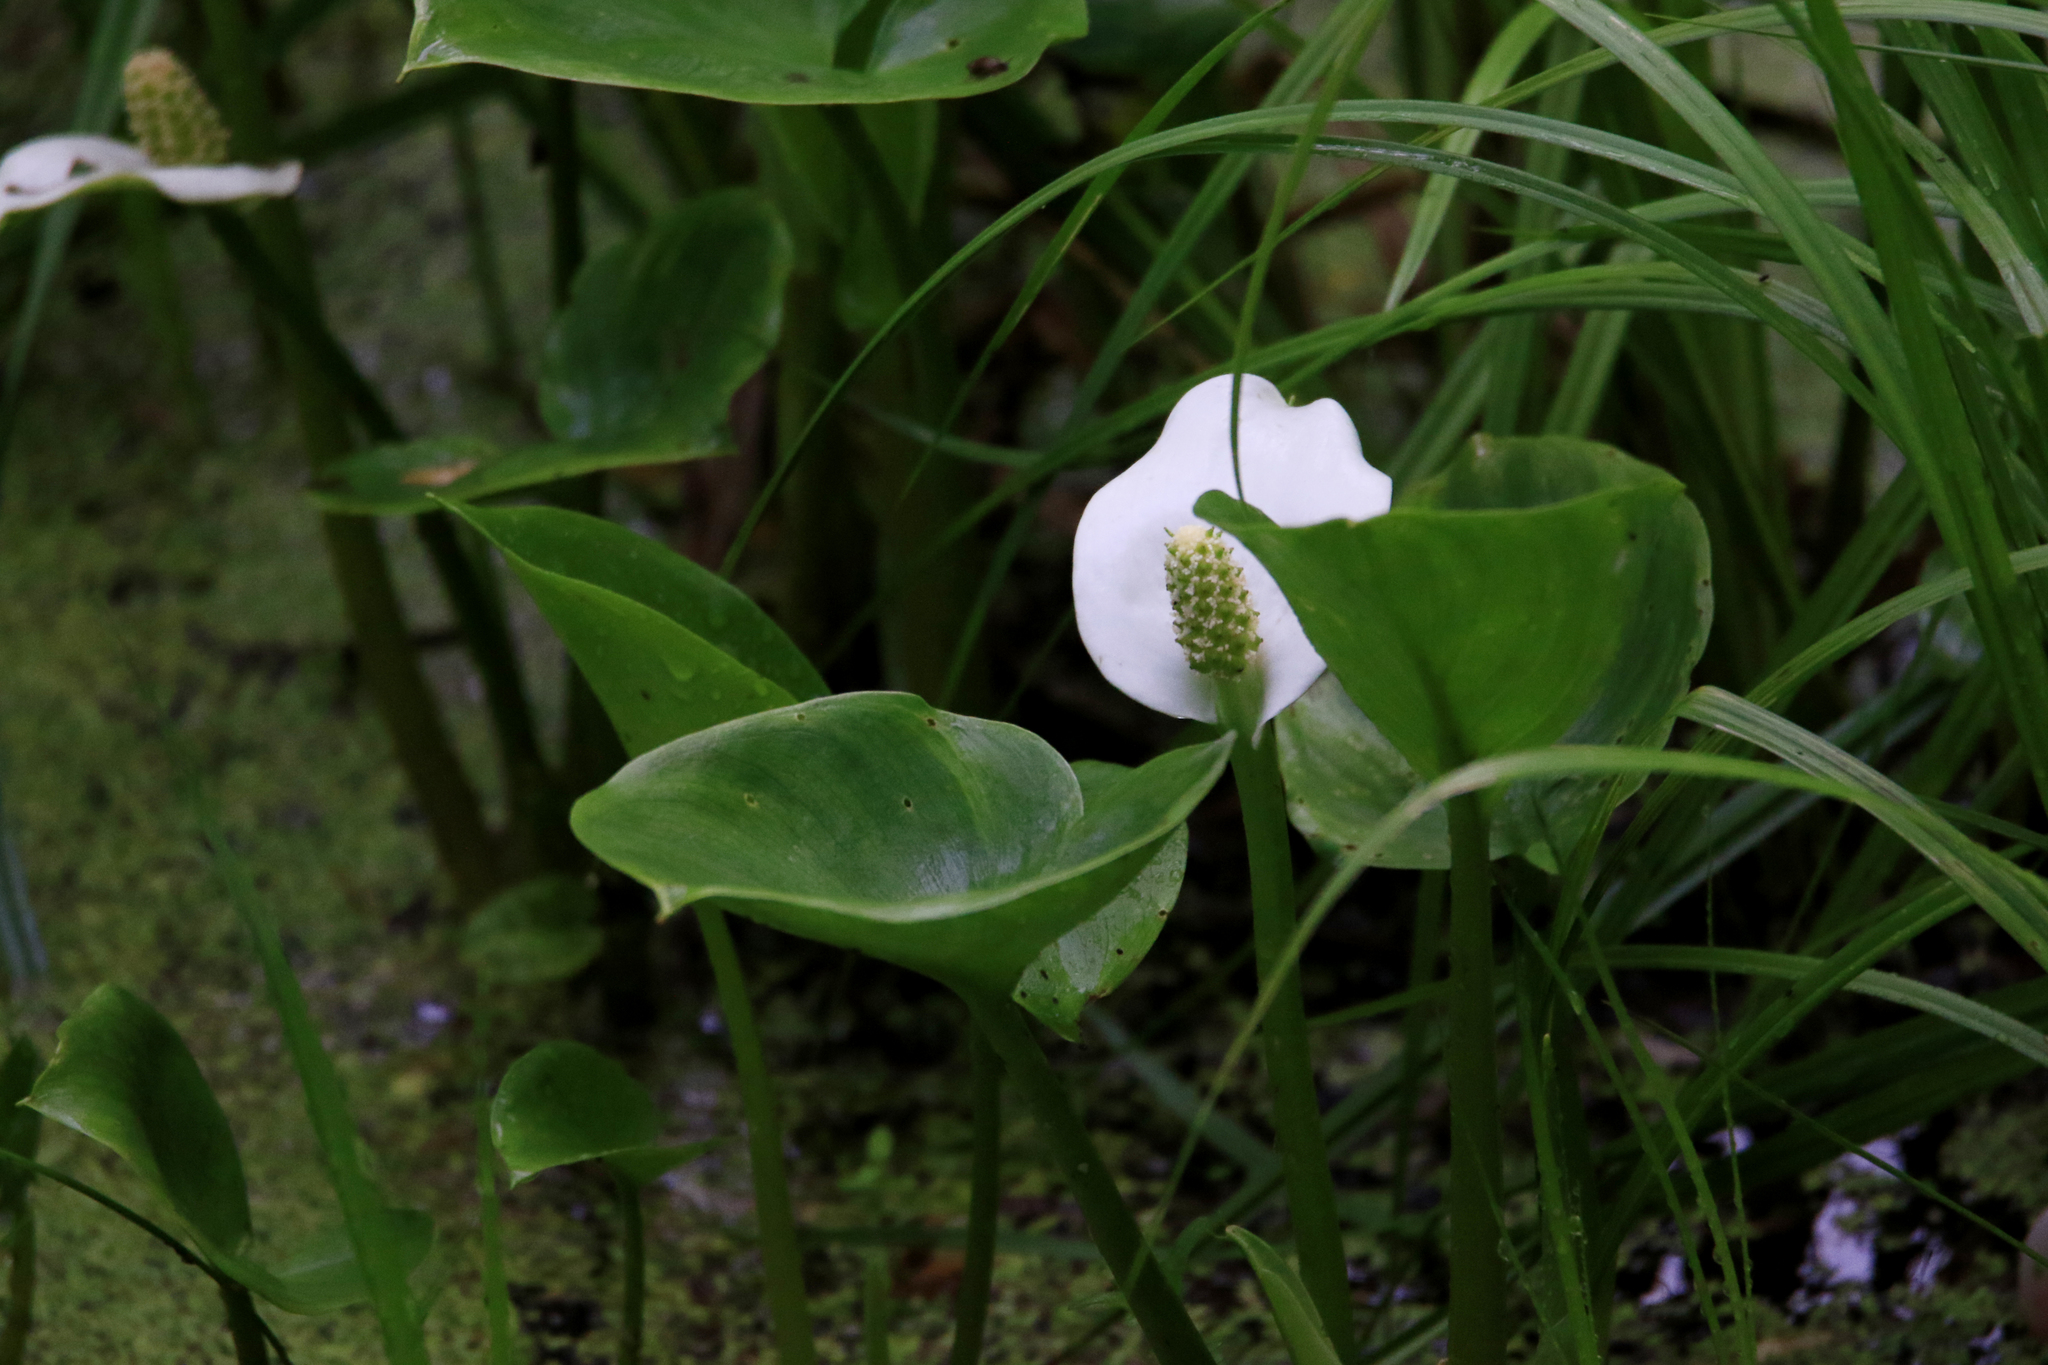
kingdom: Plantae
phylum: Tracheophyta
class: Liliopsida
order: Alismatales
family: Araceae
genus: Calla
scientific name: Calla palustris
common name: Bog arum
